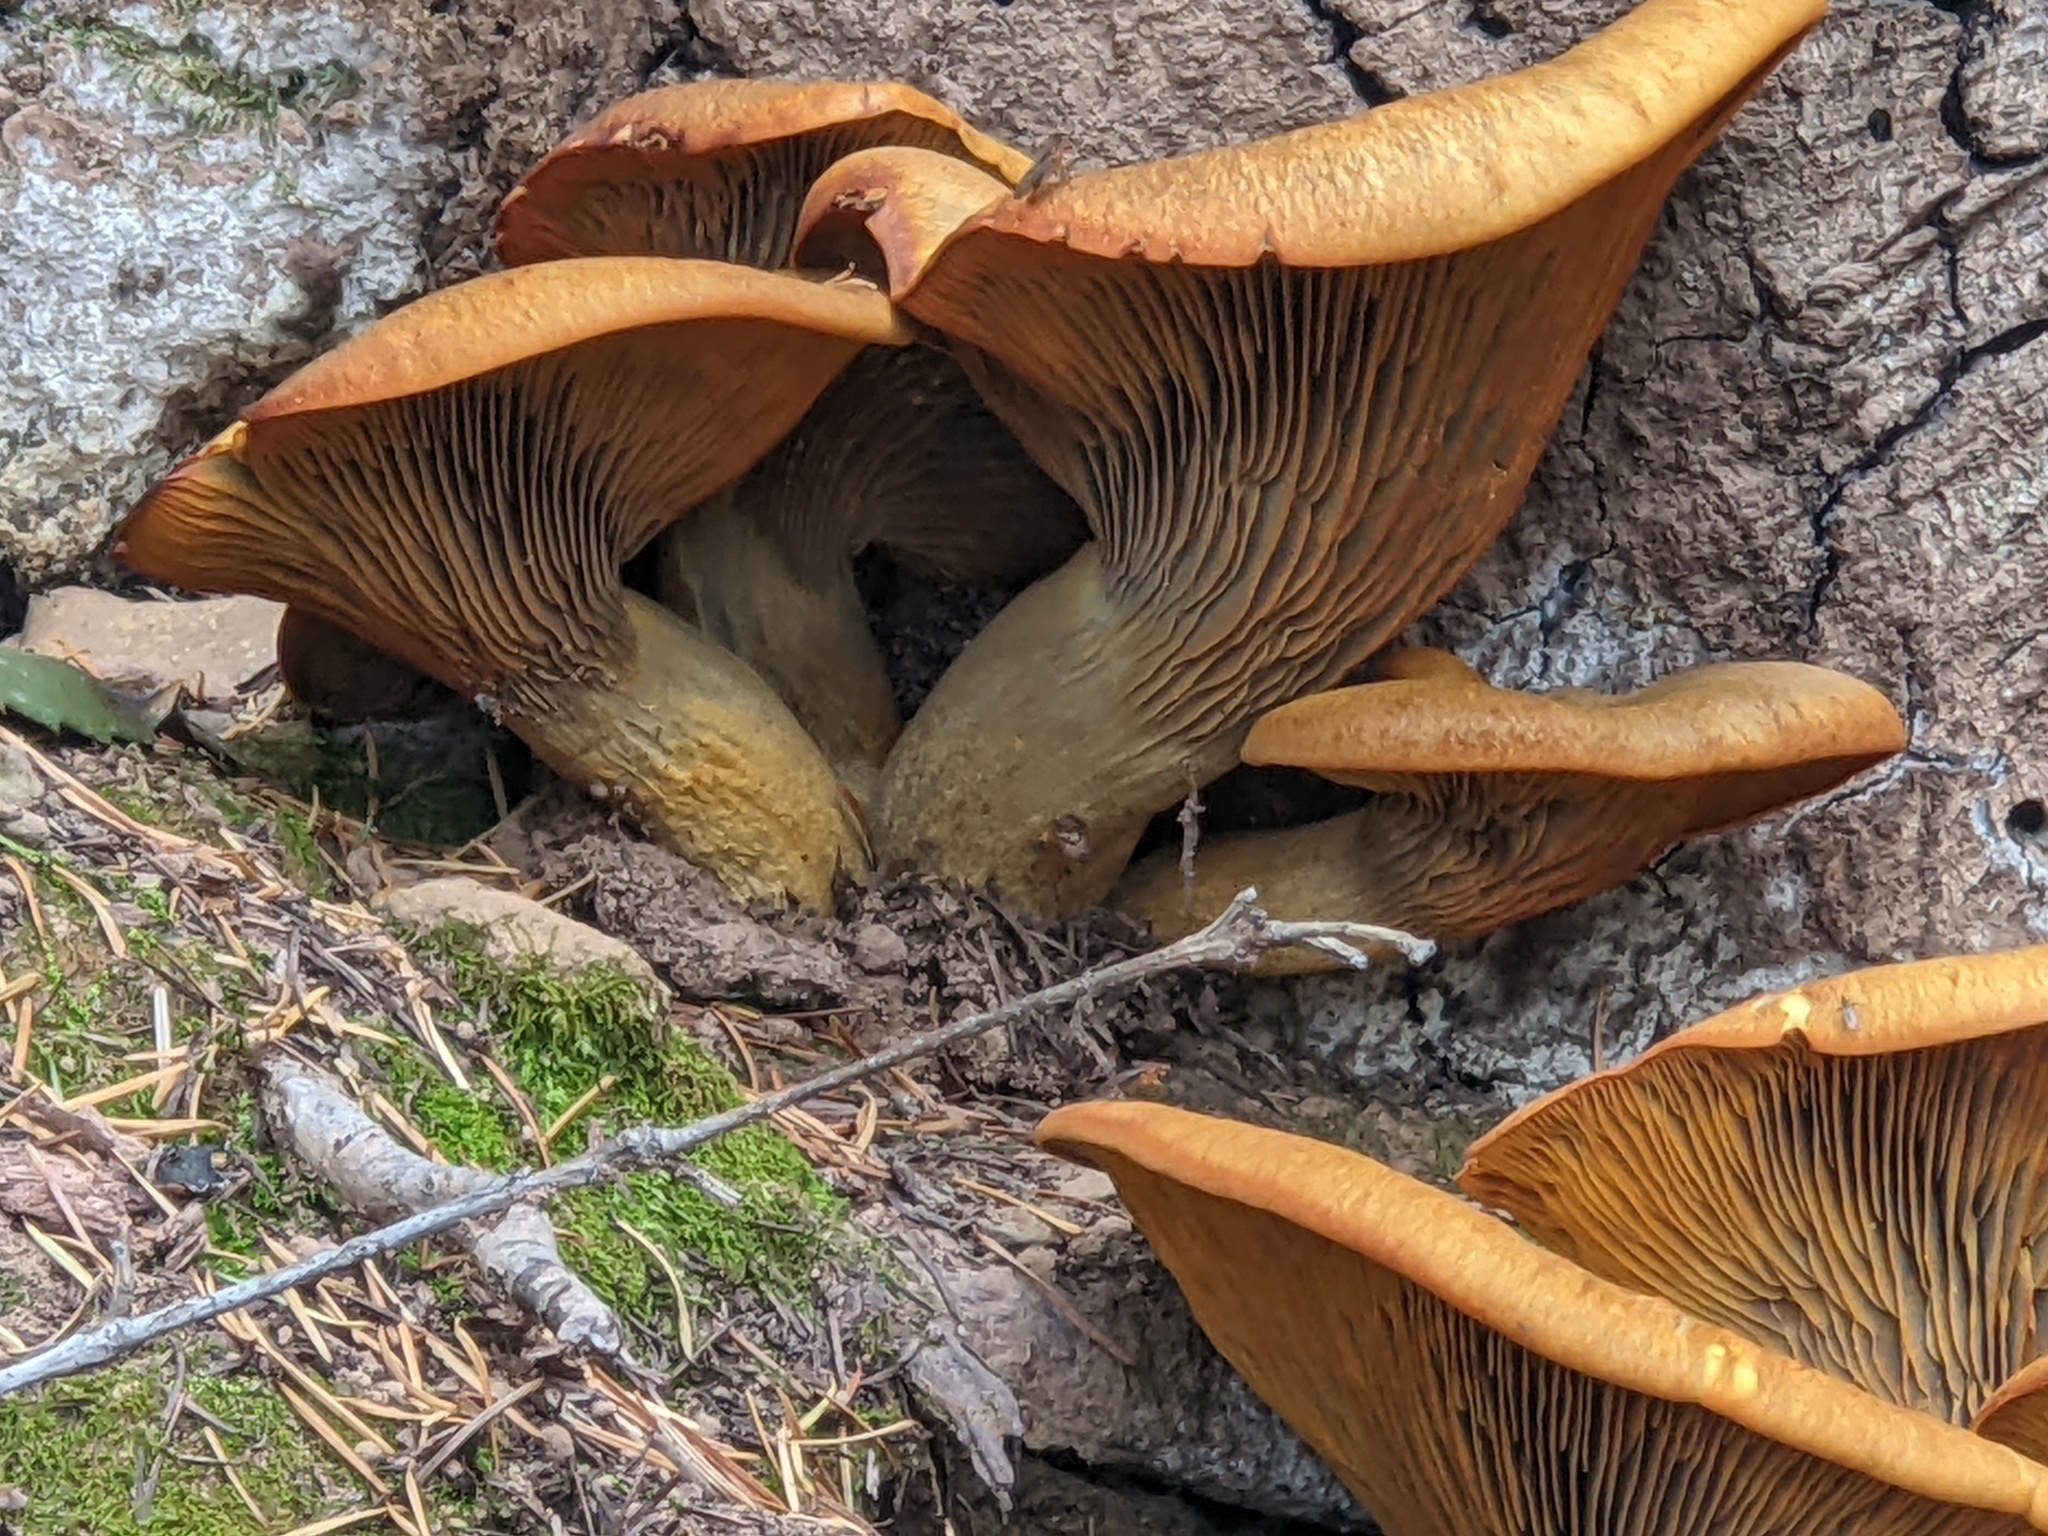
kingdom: Fungi
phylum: Basidiomycota
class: Agaricomycetes
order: Agaricales
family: Omphalotaceae
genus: Omphalotus
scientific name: Omphalotus olivascens
